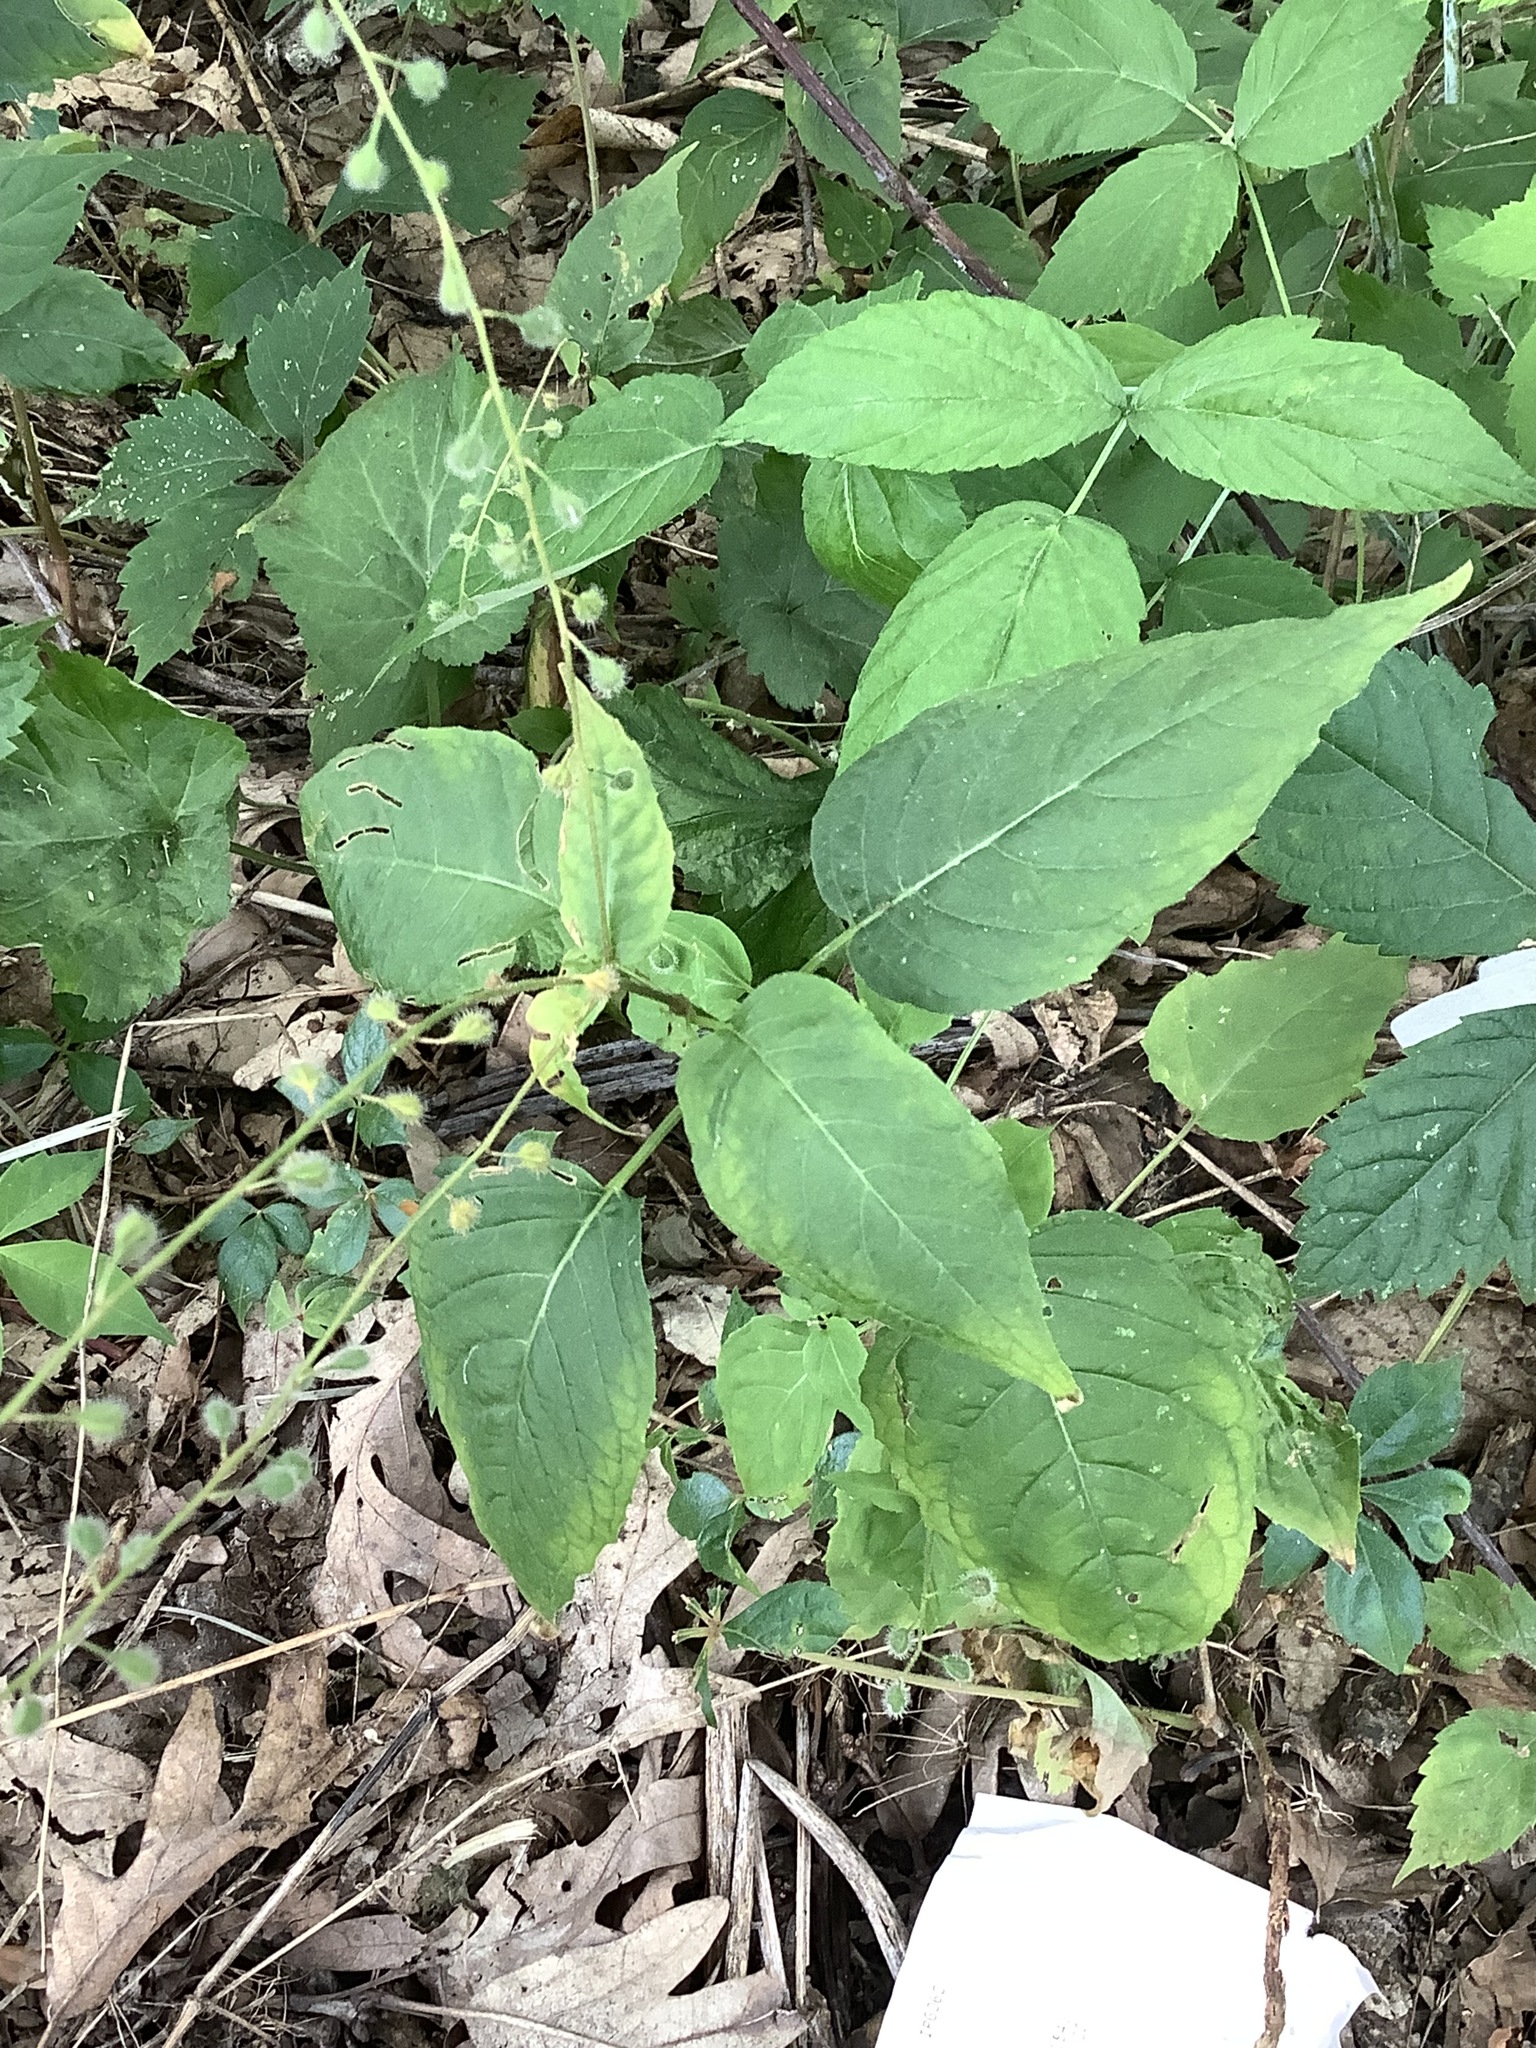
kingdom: Plantae
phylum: Tracheophyta
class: Magnoliopsida
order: Myrtales
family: Onagraceae
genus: Circaea
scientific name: Circaea canadensis
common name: Broad-leaved enchanter's nightshade
